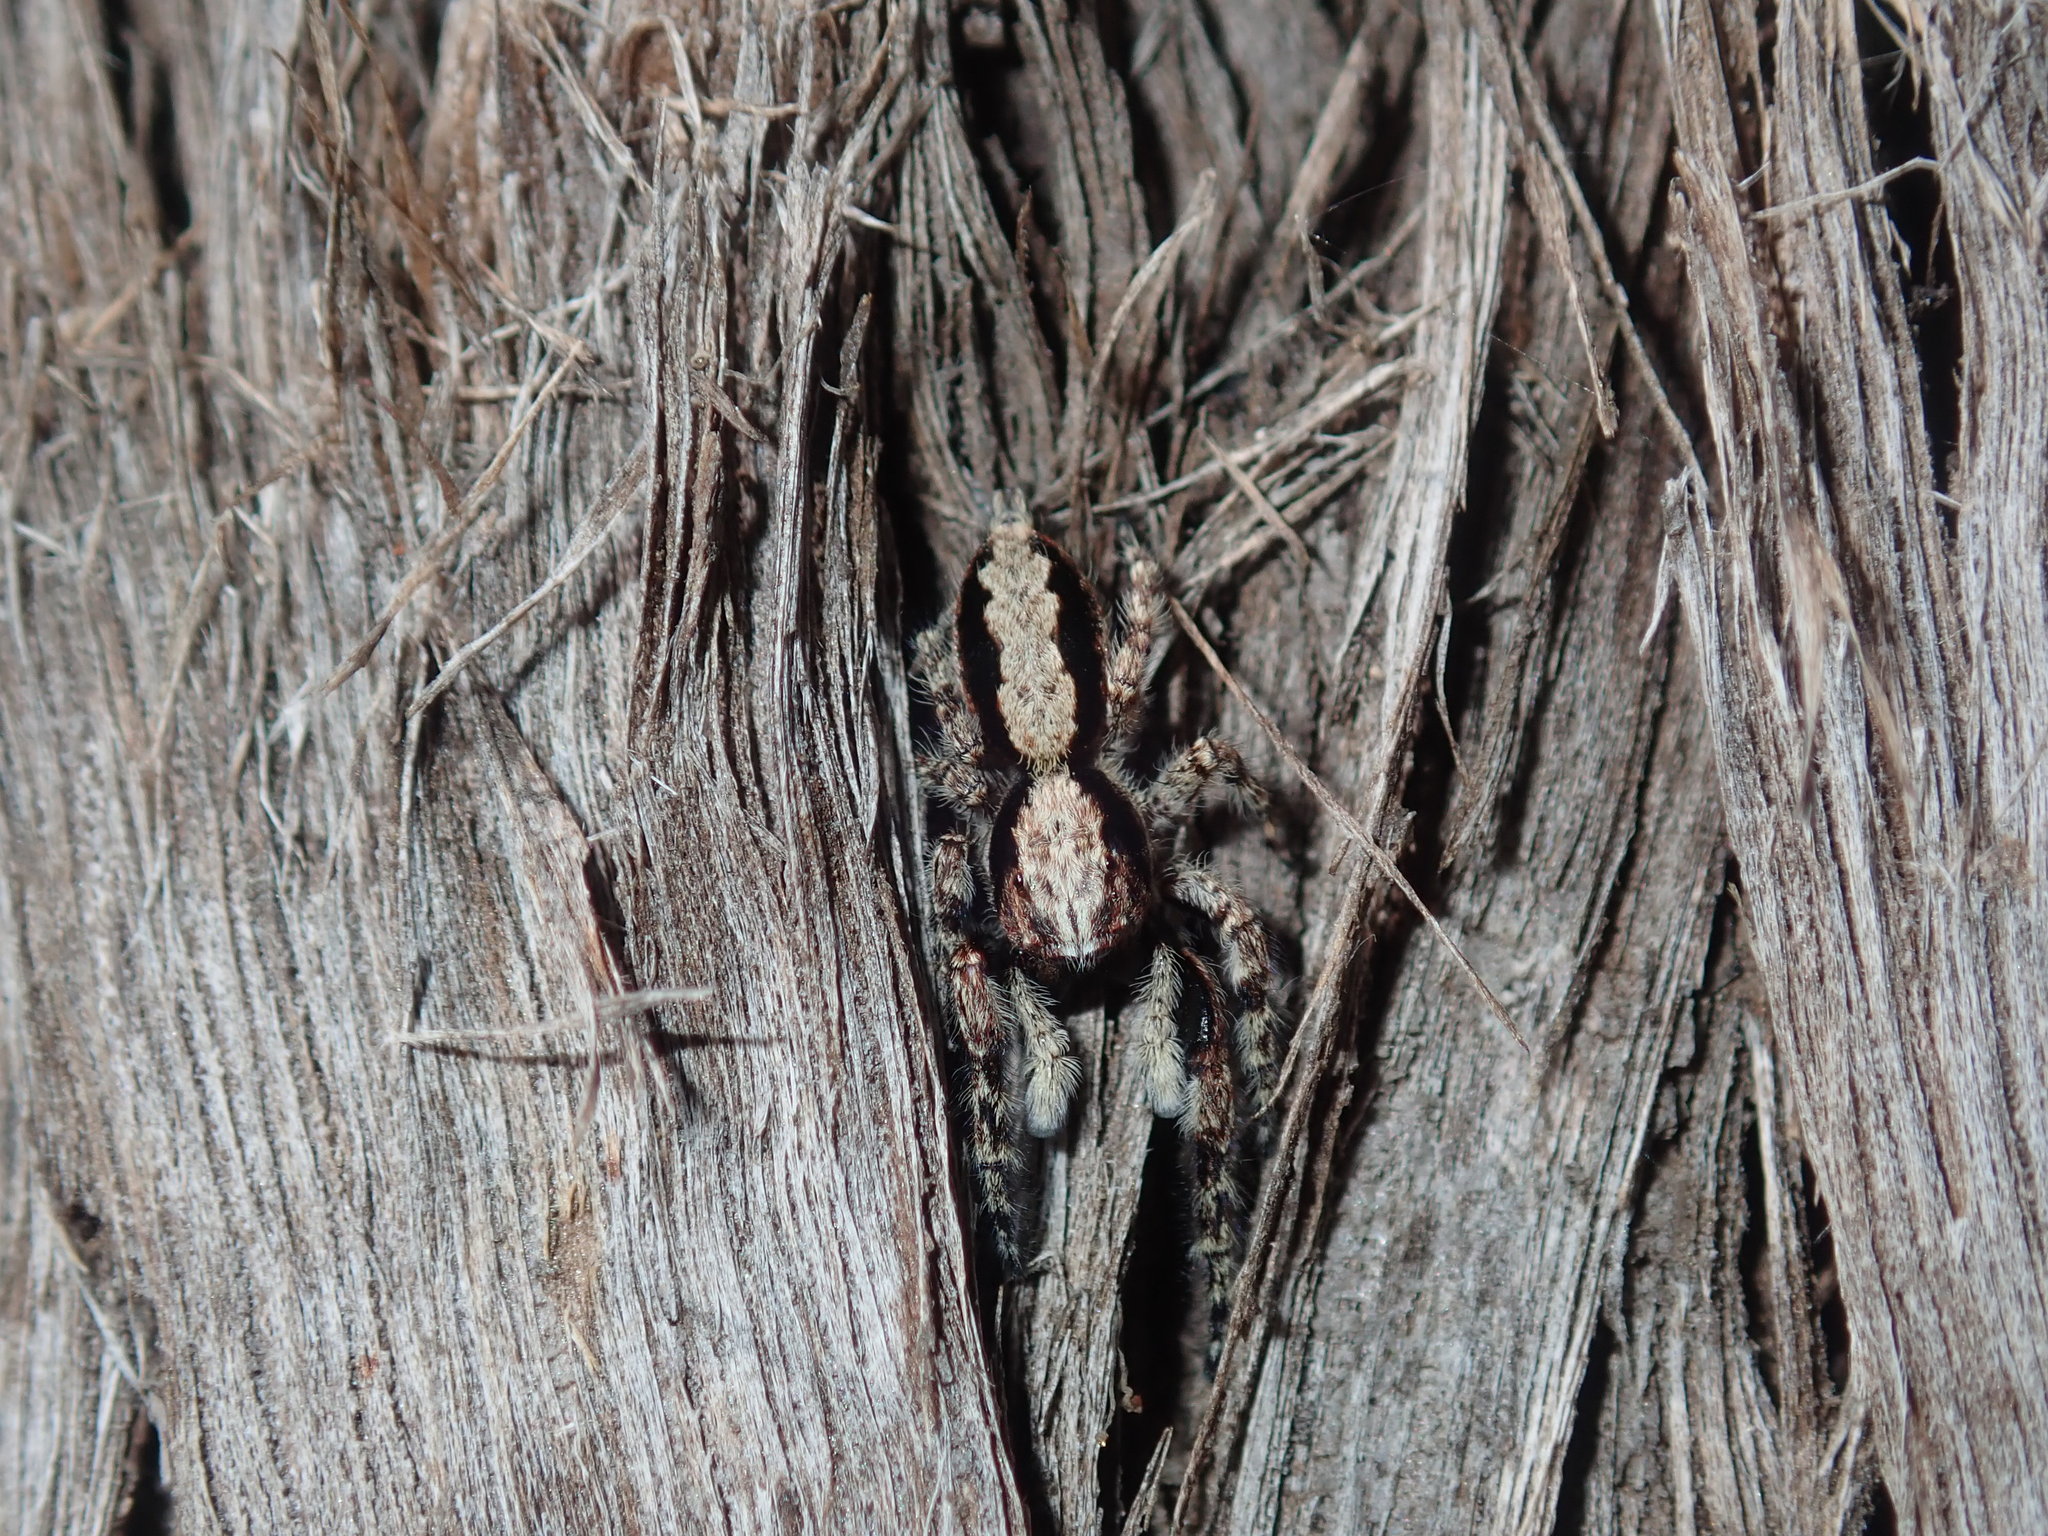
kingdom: Animalia
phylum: Arthropoda
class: Arachnida
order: Araneae
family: Salticidae
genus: Clynotis
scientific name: Clynotis severus
